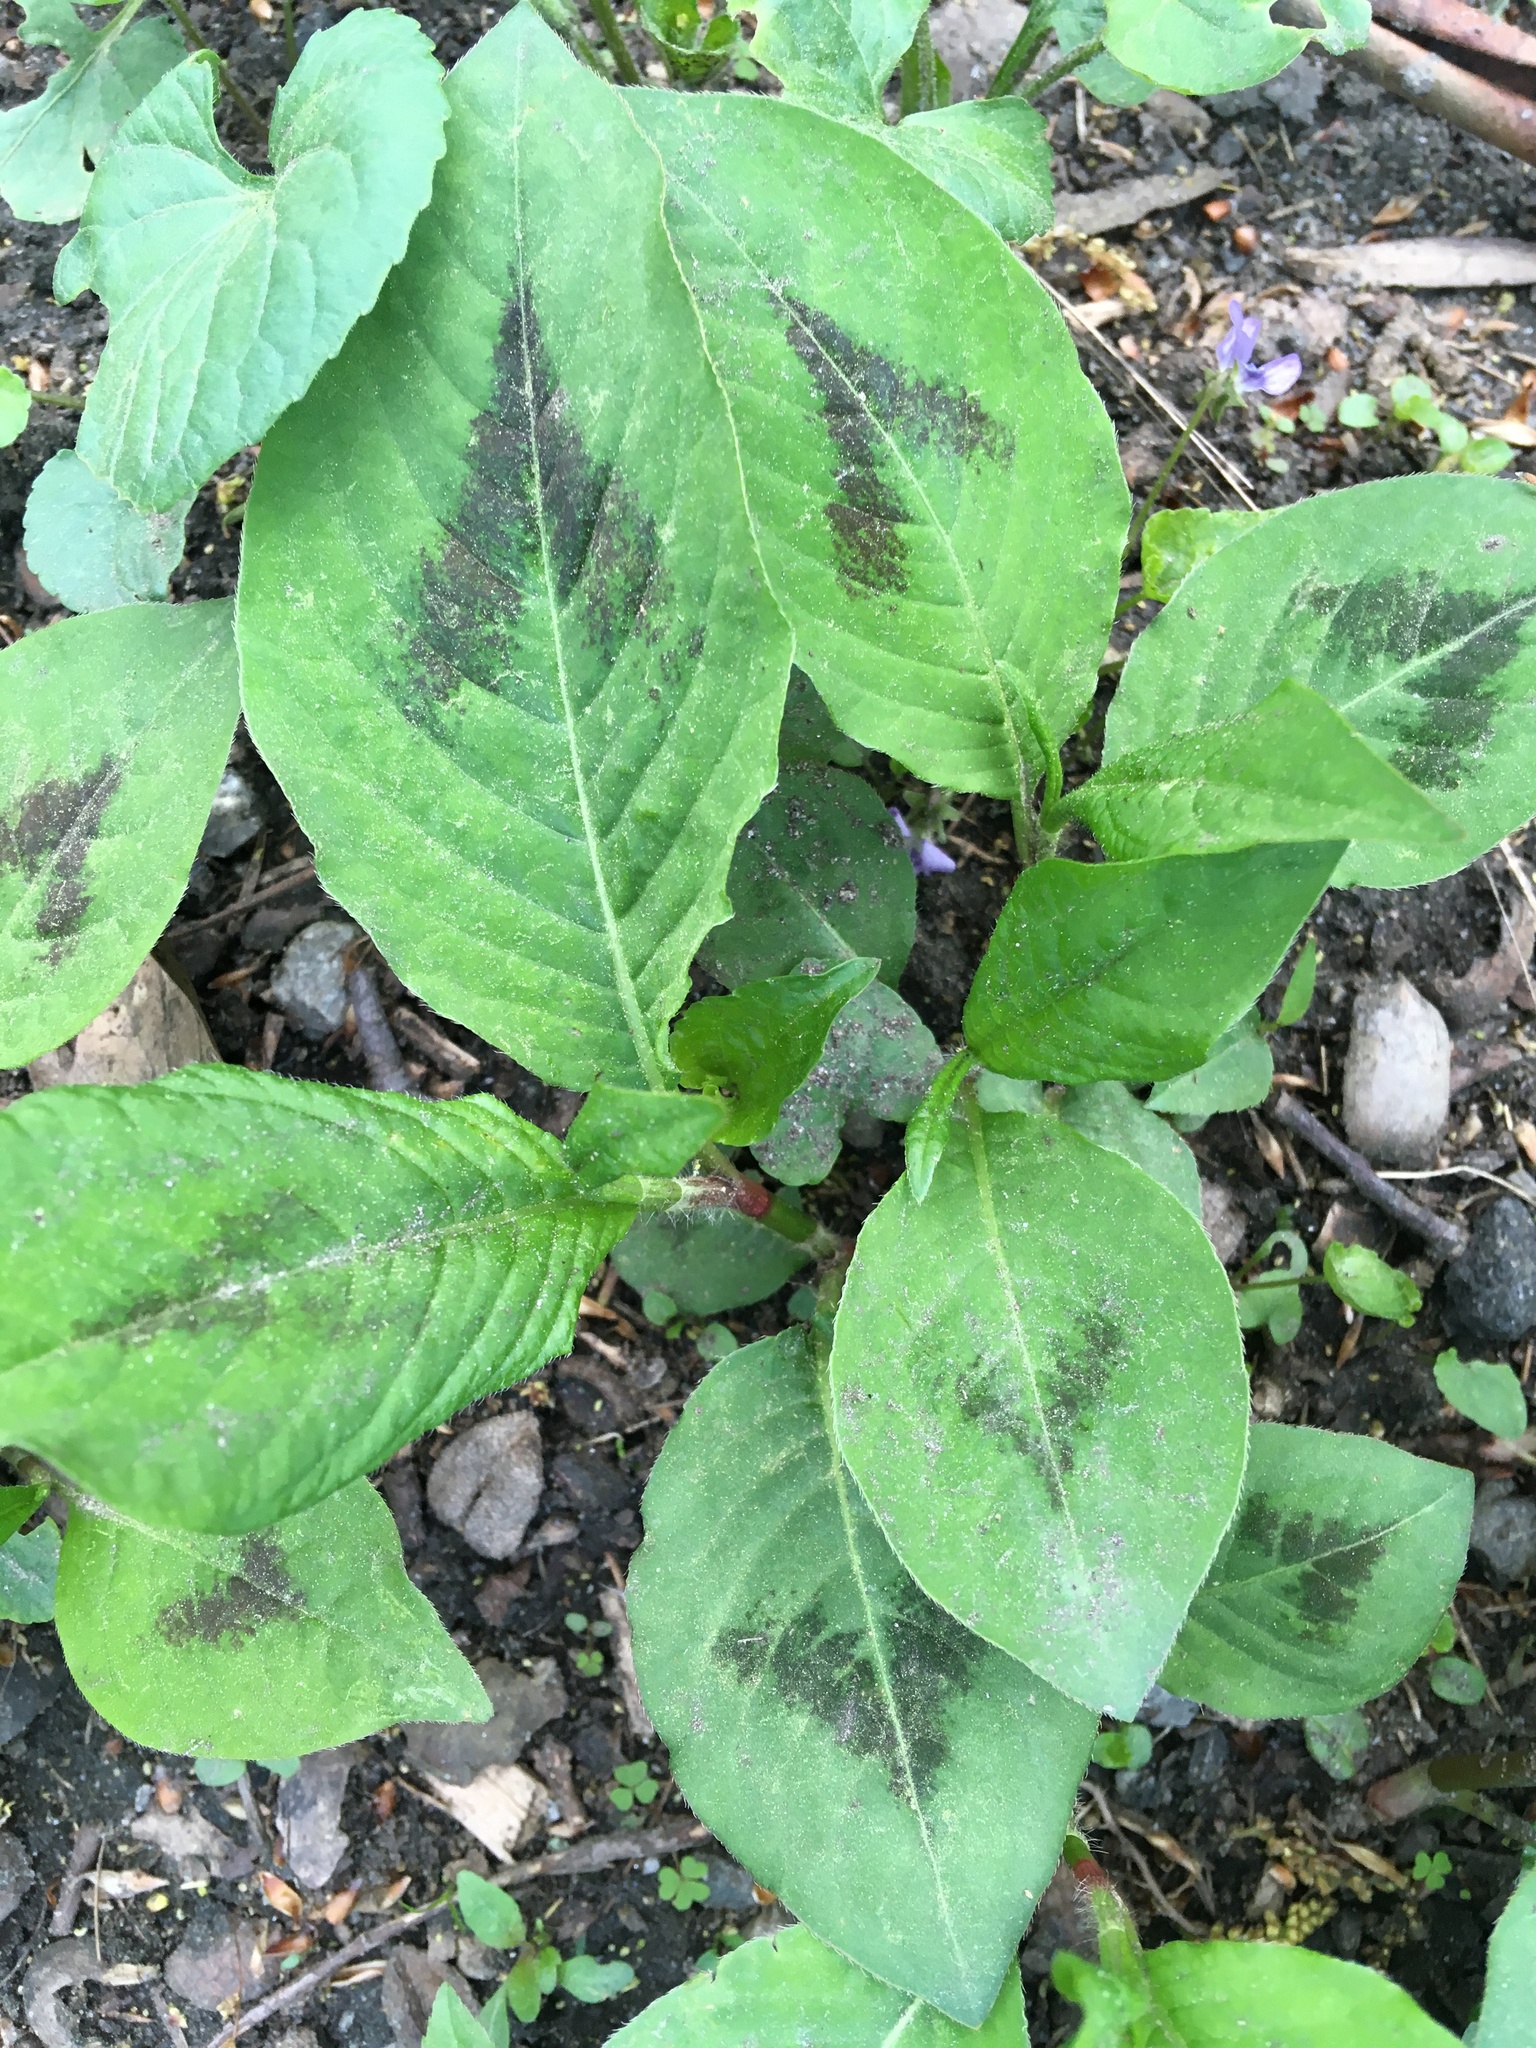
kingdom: Plantae
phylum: Tracheophyta
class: Magnoliopsida
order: Caryophyllales
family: Polygonaceae
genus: Persicaria
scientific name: Persicaria virginiana
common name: Jumpseed
